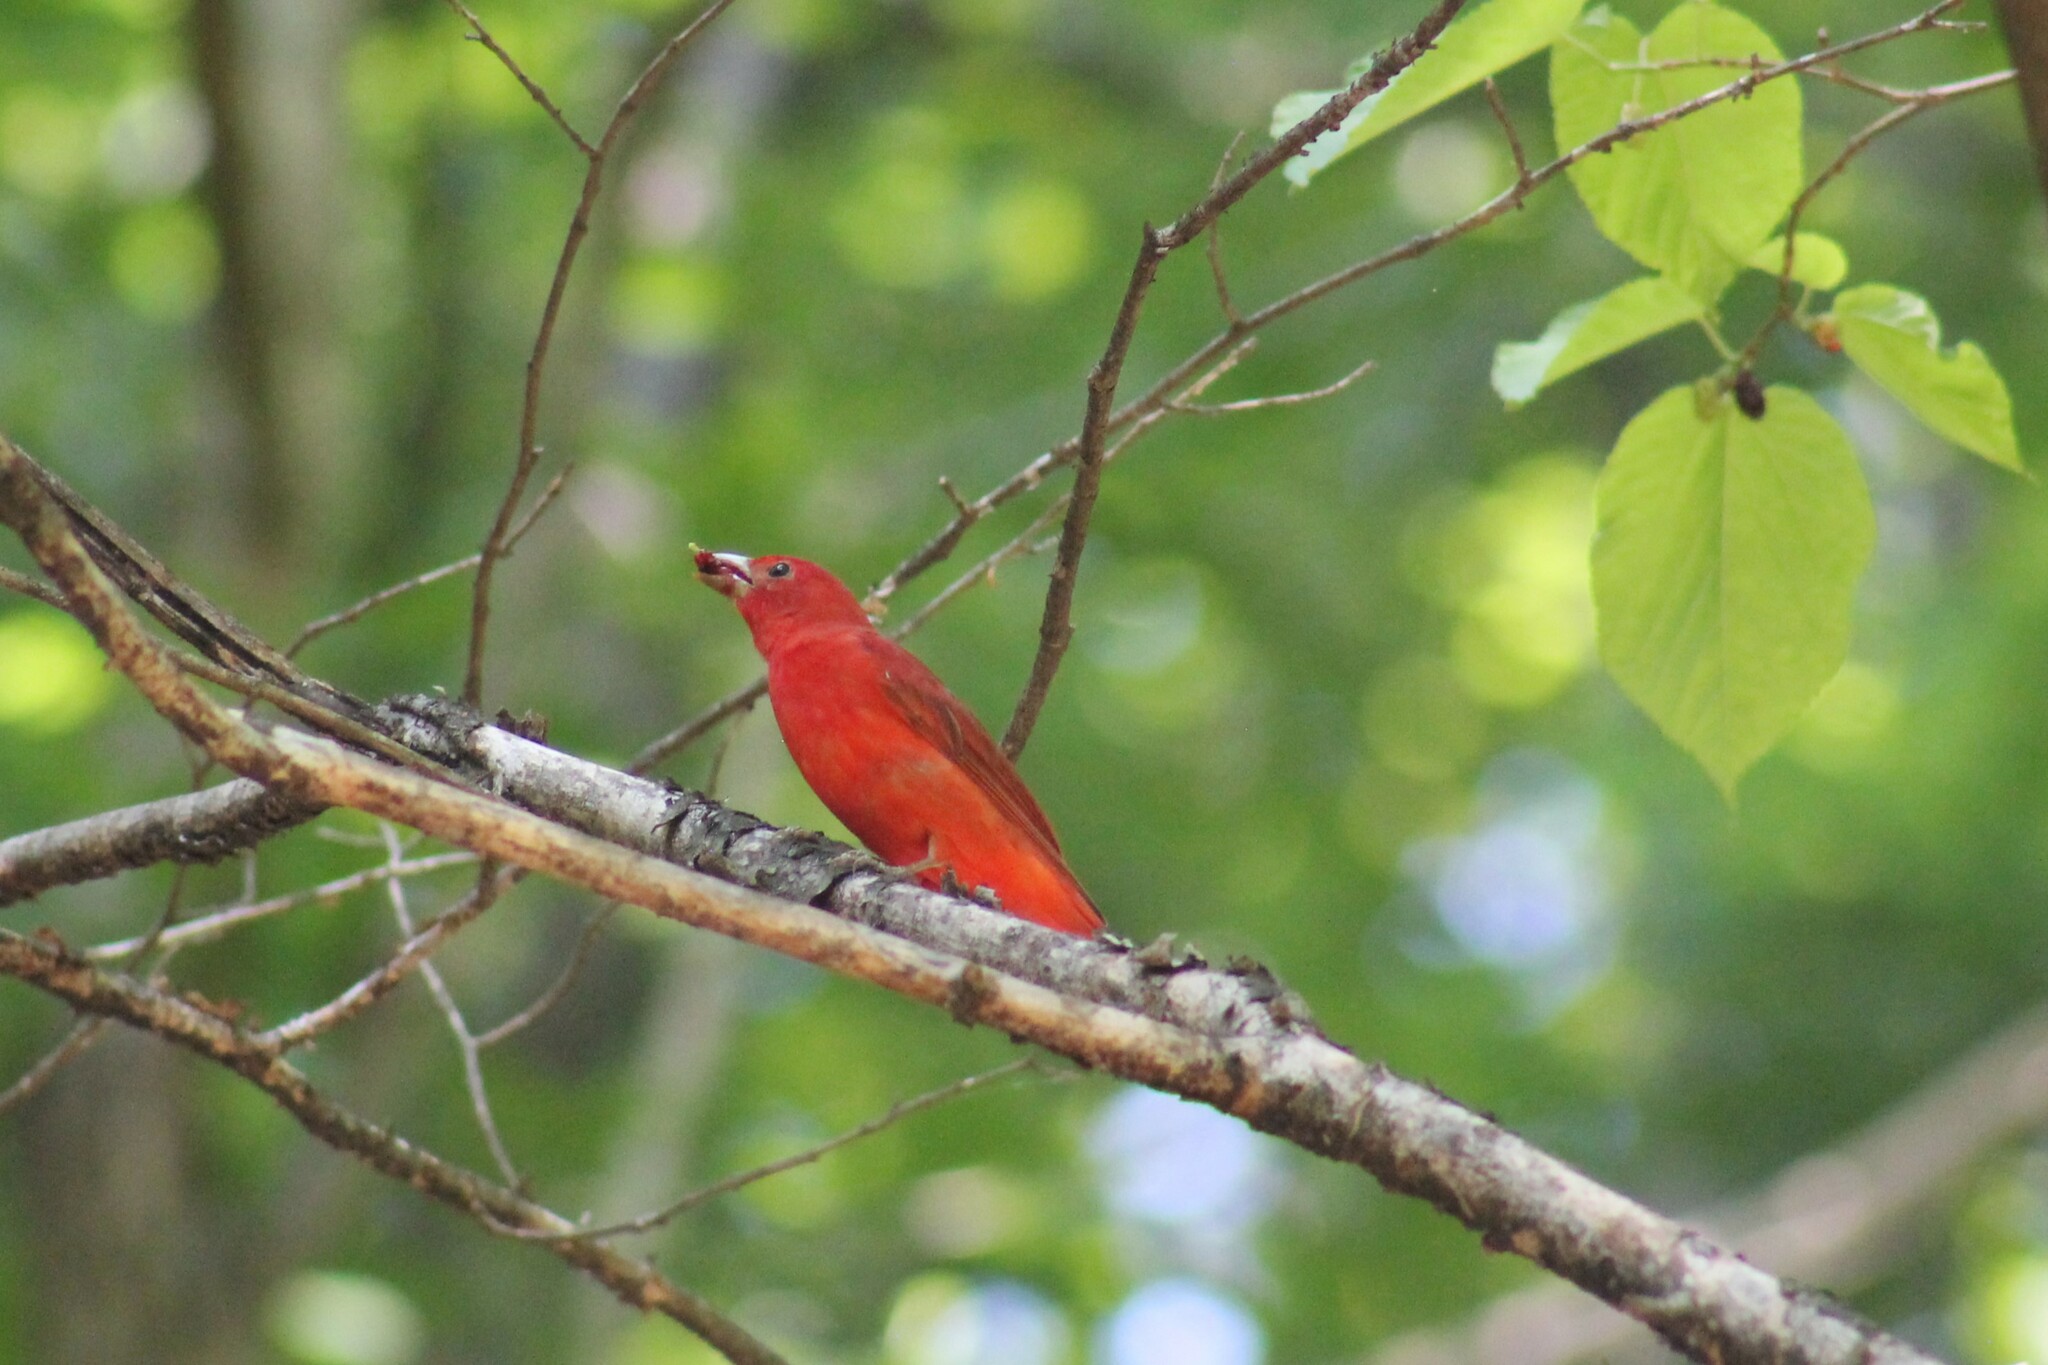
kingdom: Animalia
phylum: Chordata
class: Aves
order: Passeriformes
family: Cardinalidae
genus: Piranga
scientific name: Piranga rubra
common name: Summer tanager
